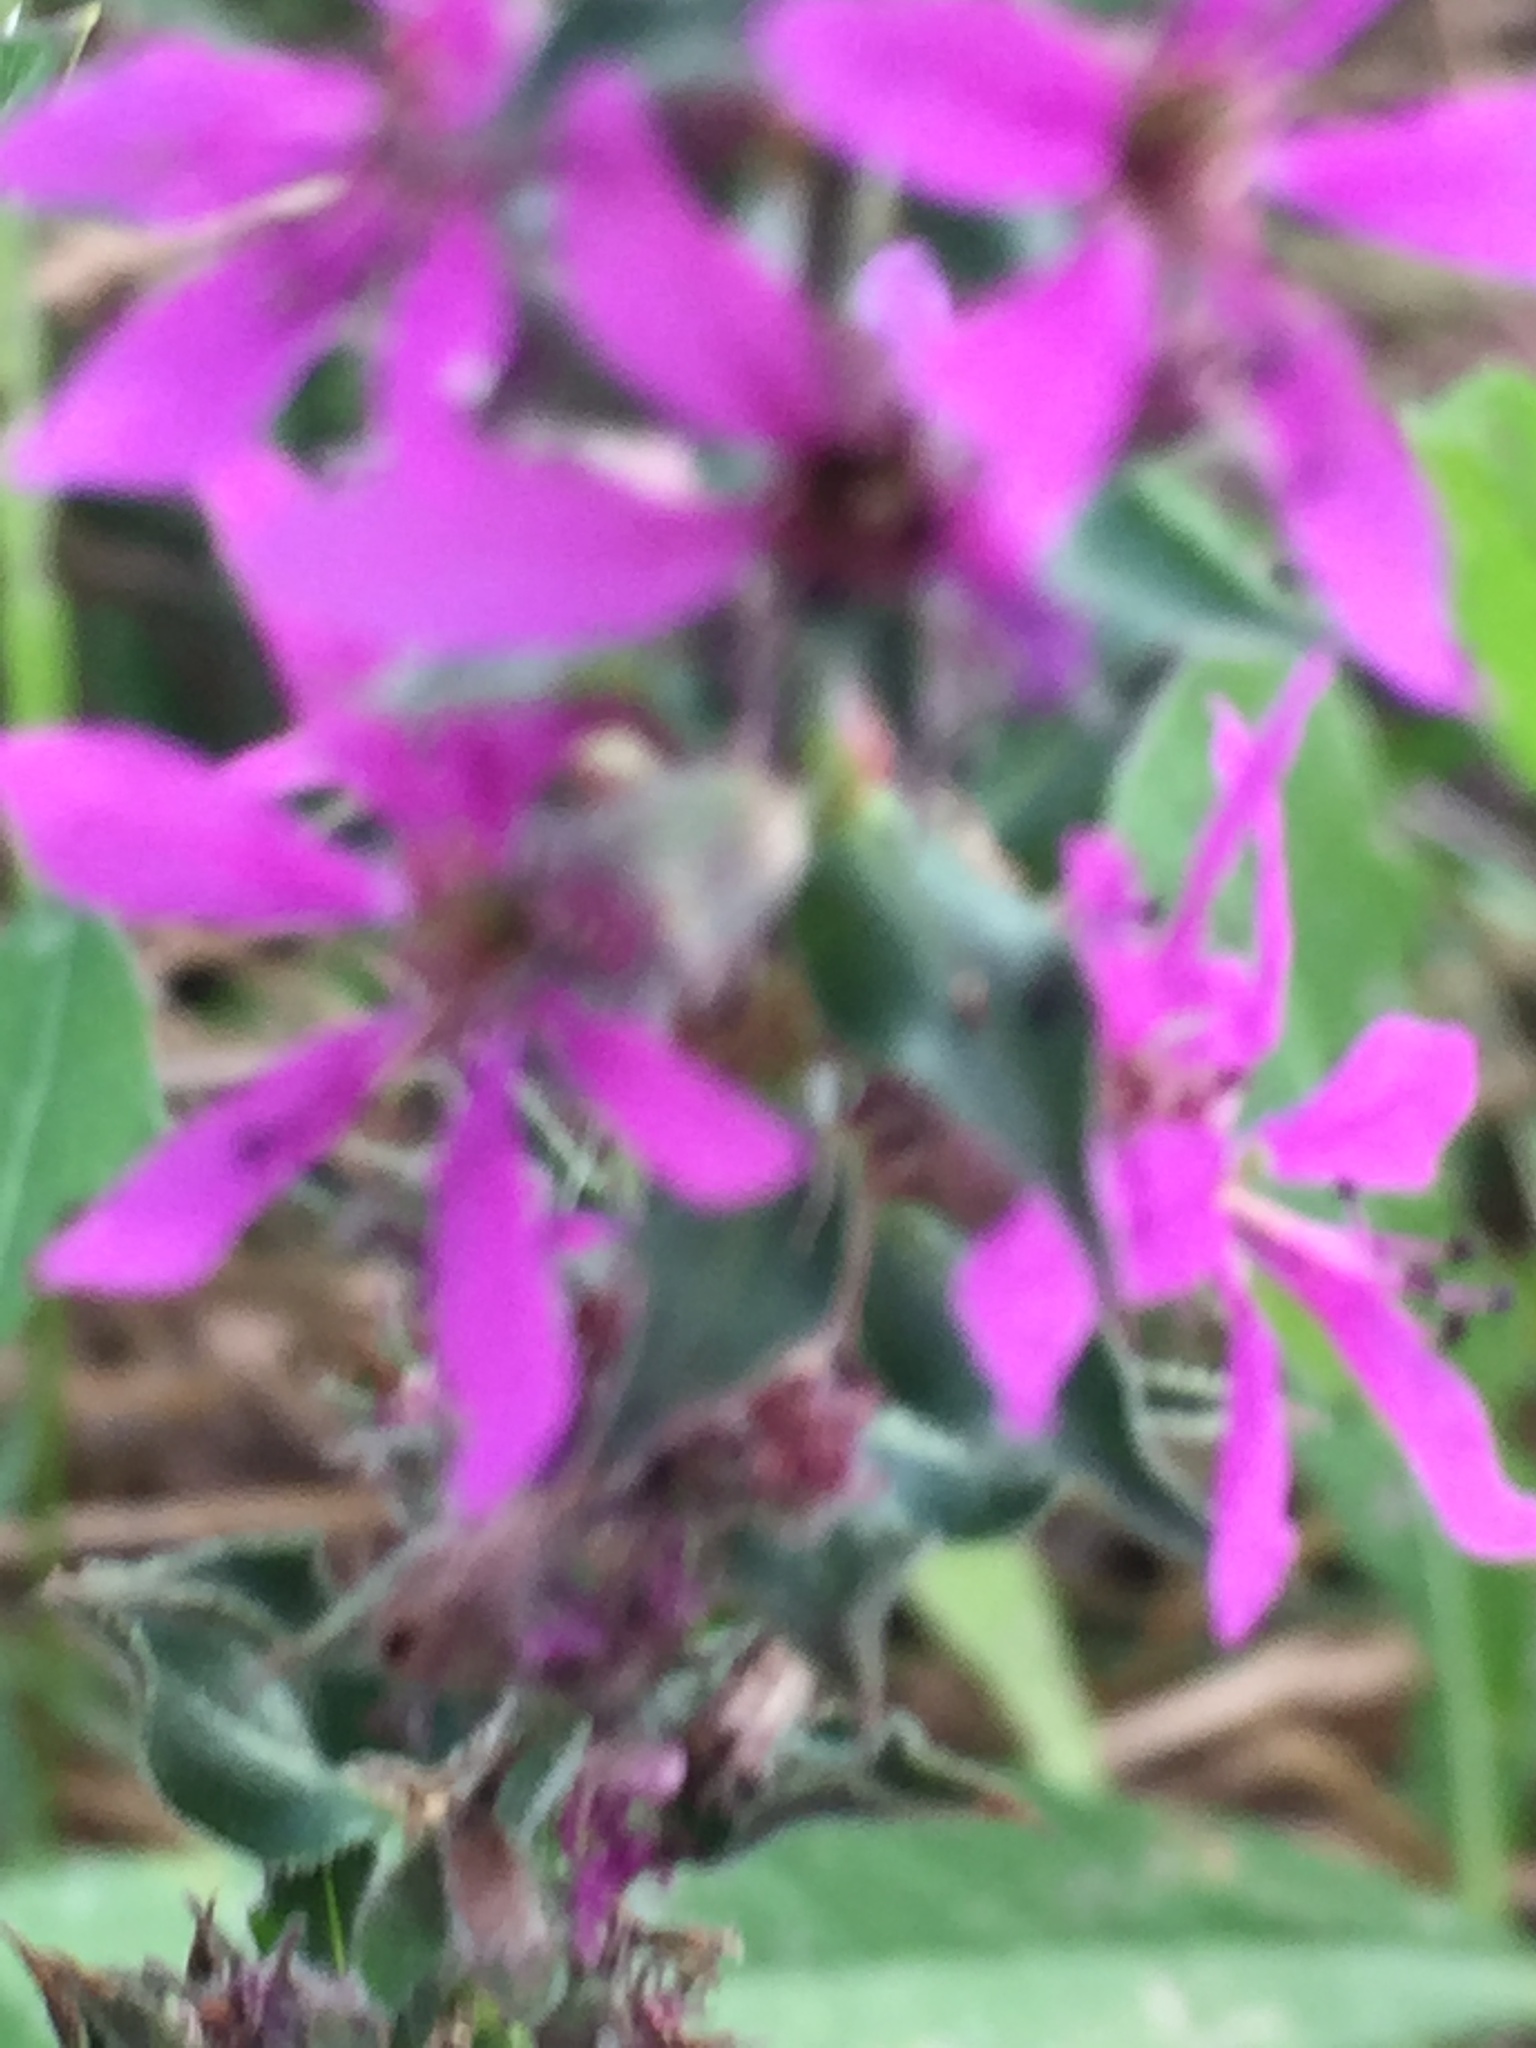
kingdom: Plantae
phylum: Tracheophyta
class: Magnoliopsida
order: Myrtales
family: Lythraceae
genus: Lythrum
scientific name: Lythrum salicaria
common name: Purple loosestrife
